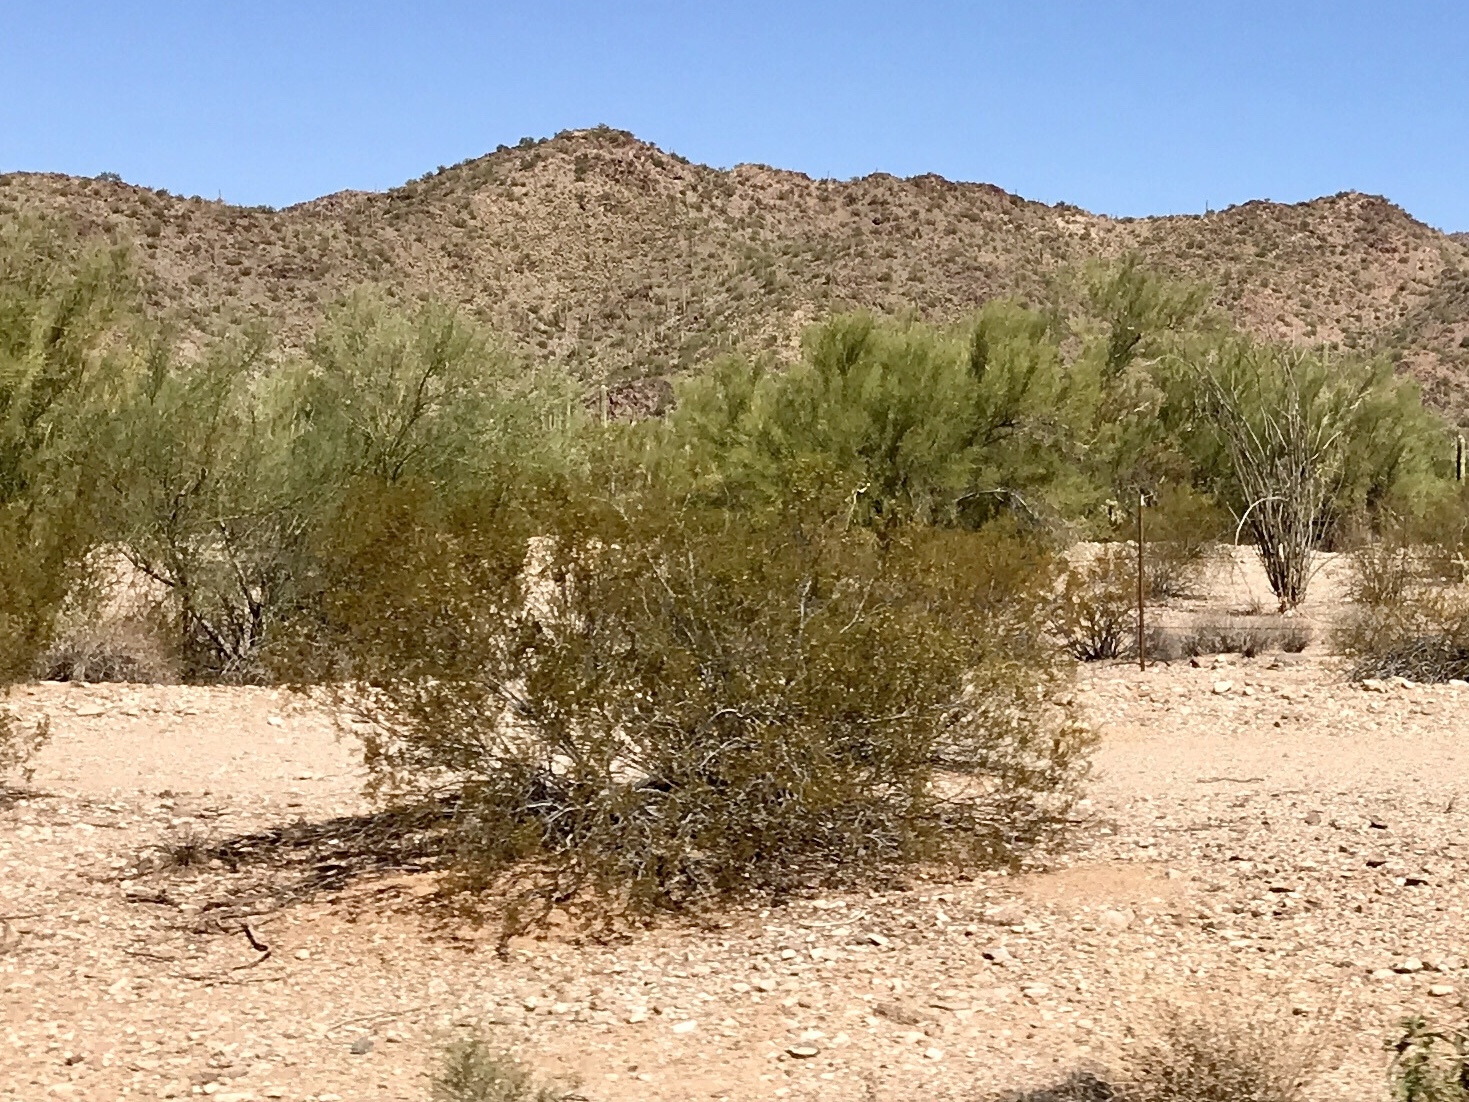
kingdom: Plantae
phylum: Tracheophyta
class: Magnoliopsida
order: Zygophyllales
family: Zygophyllaceae
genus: Larrea
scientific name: Larrea tridentata
